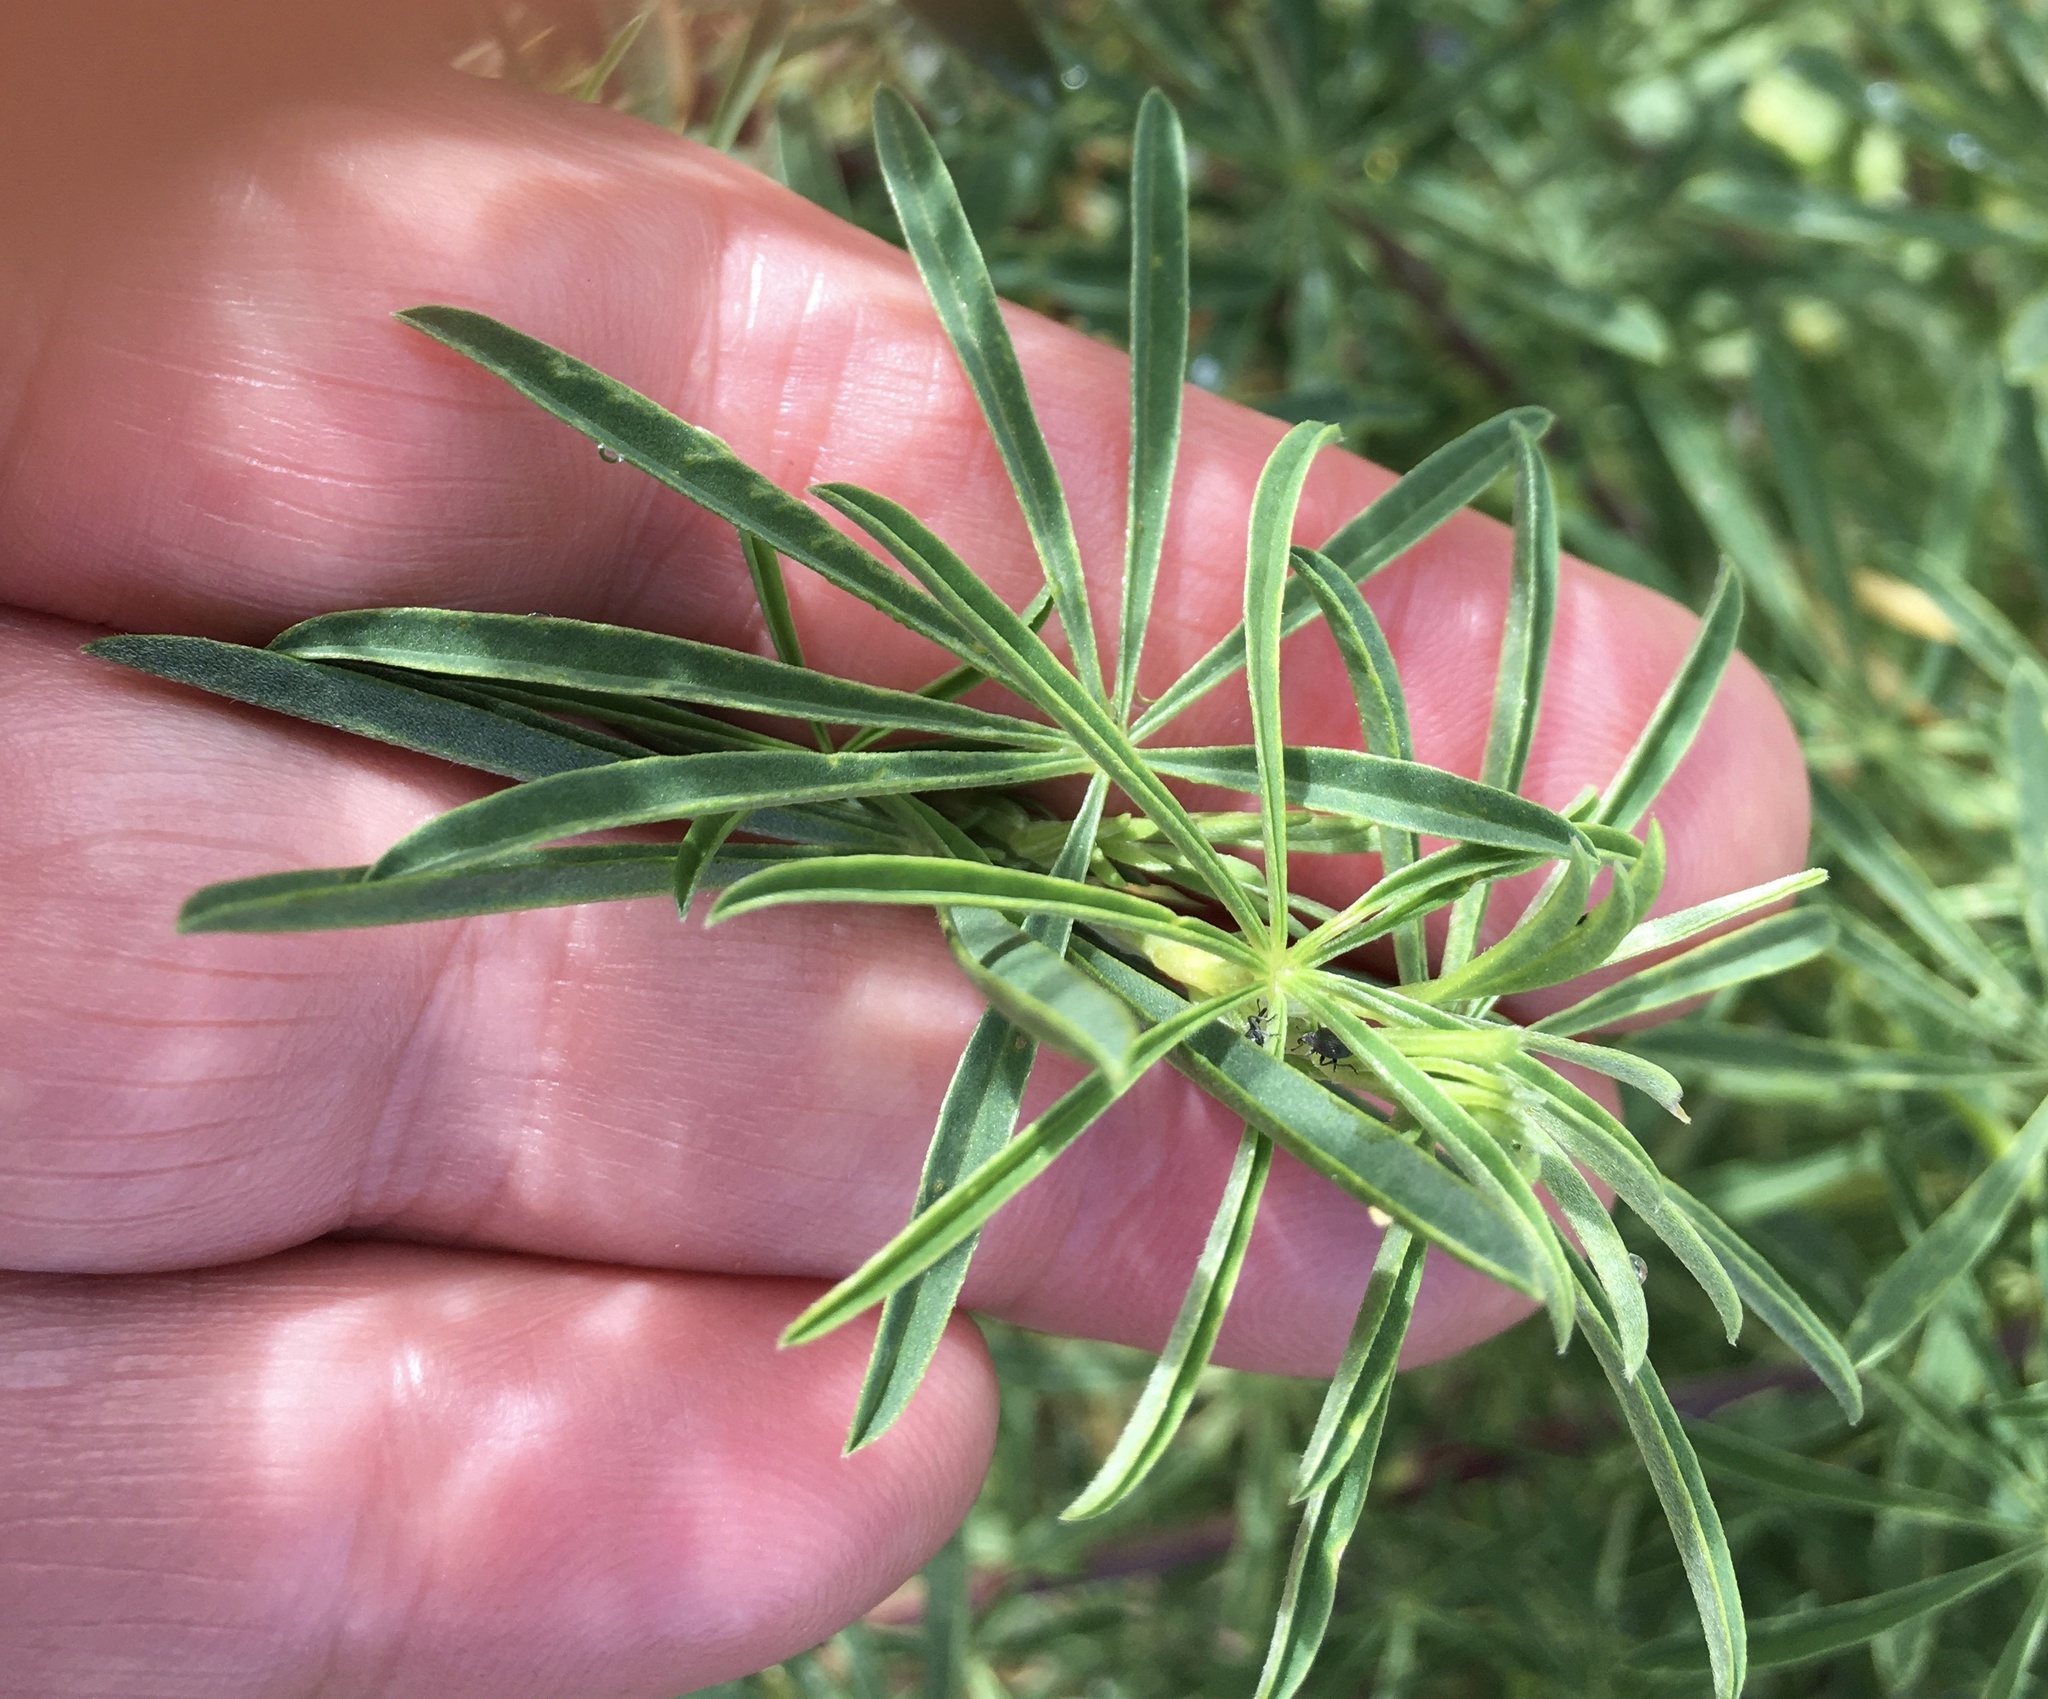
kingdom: Plantae
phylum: Tracheophyta
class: Magnoliopsida
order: Fabales
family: Fabaceae
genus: Lupinus
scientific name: Lupinus arboreus
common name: Yellow bush lupine
